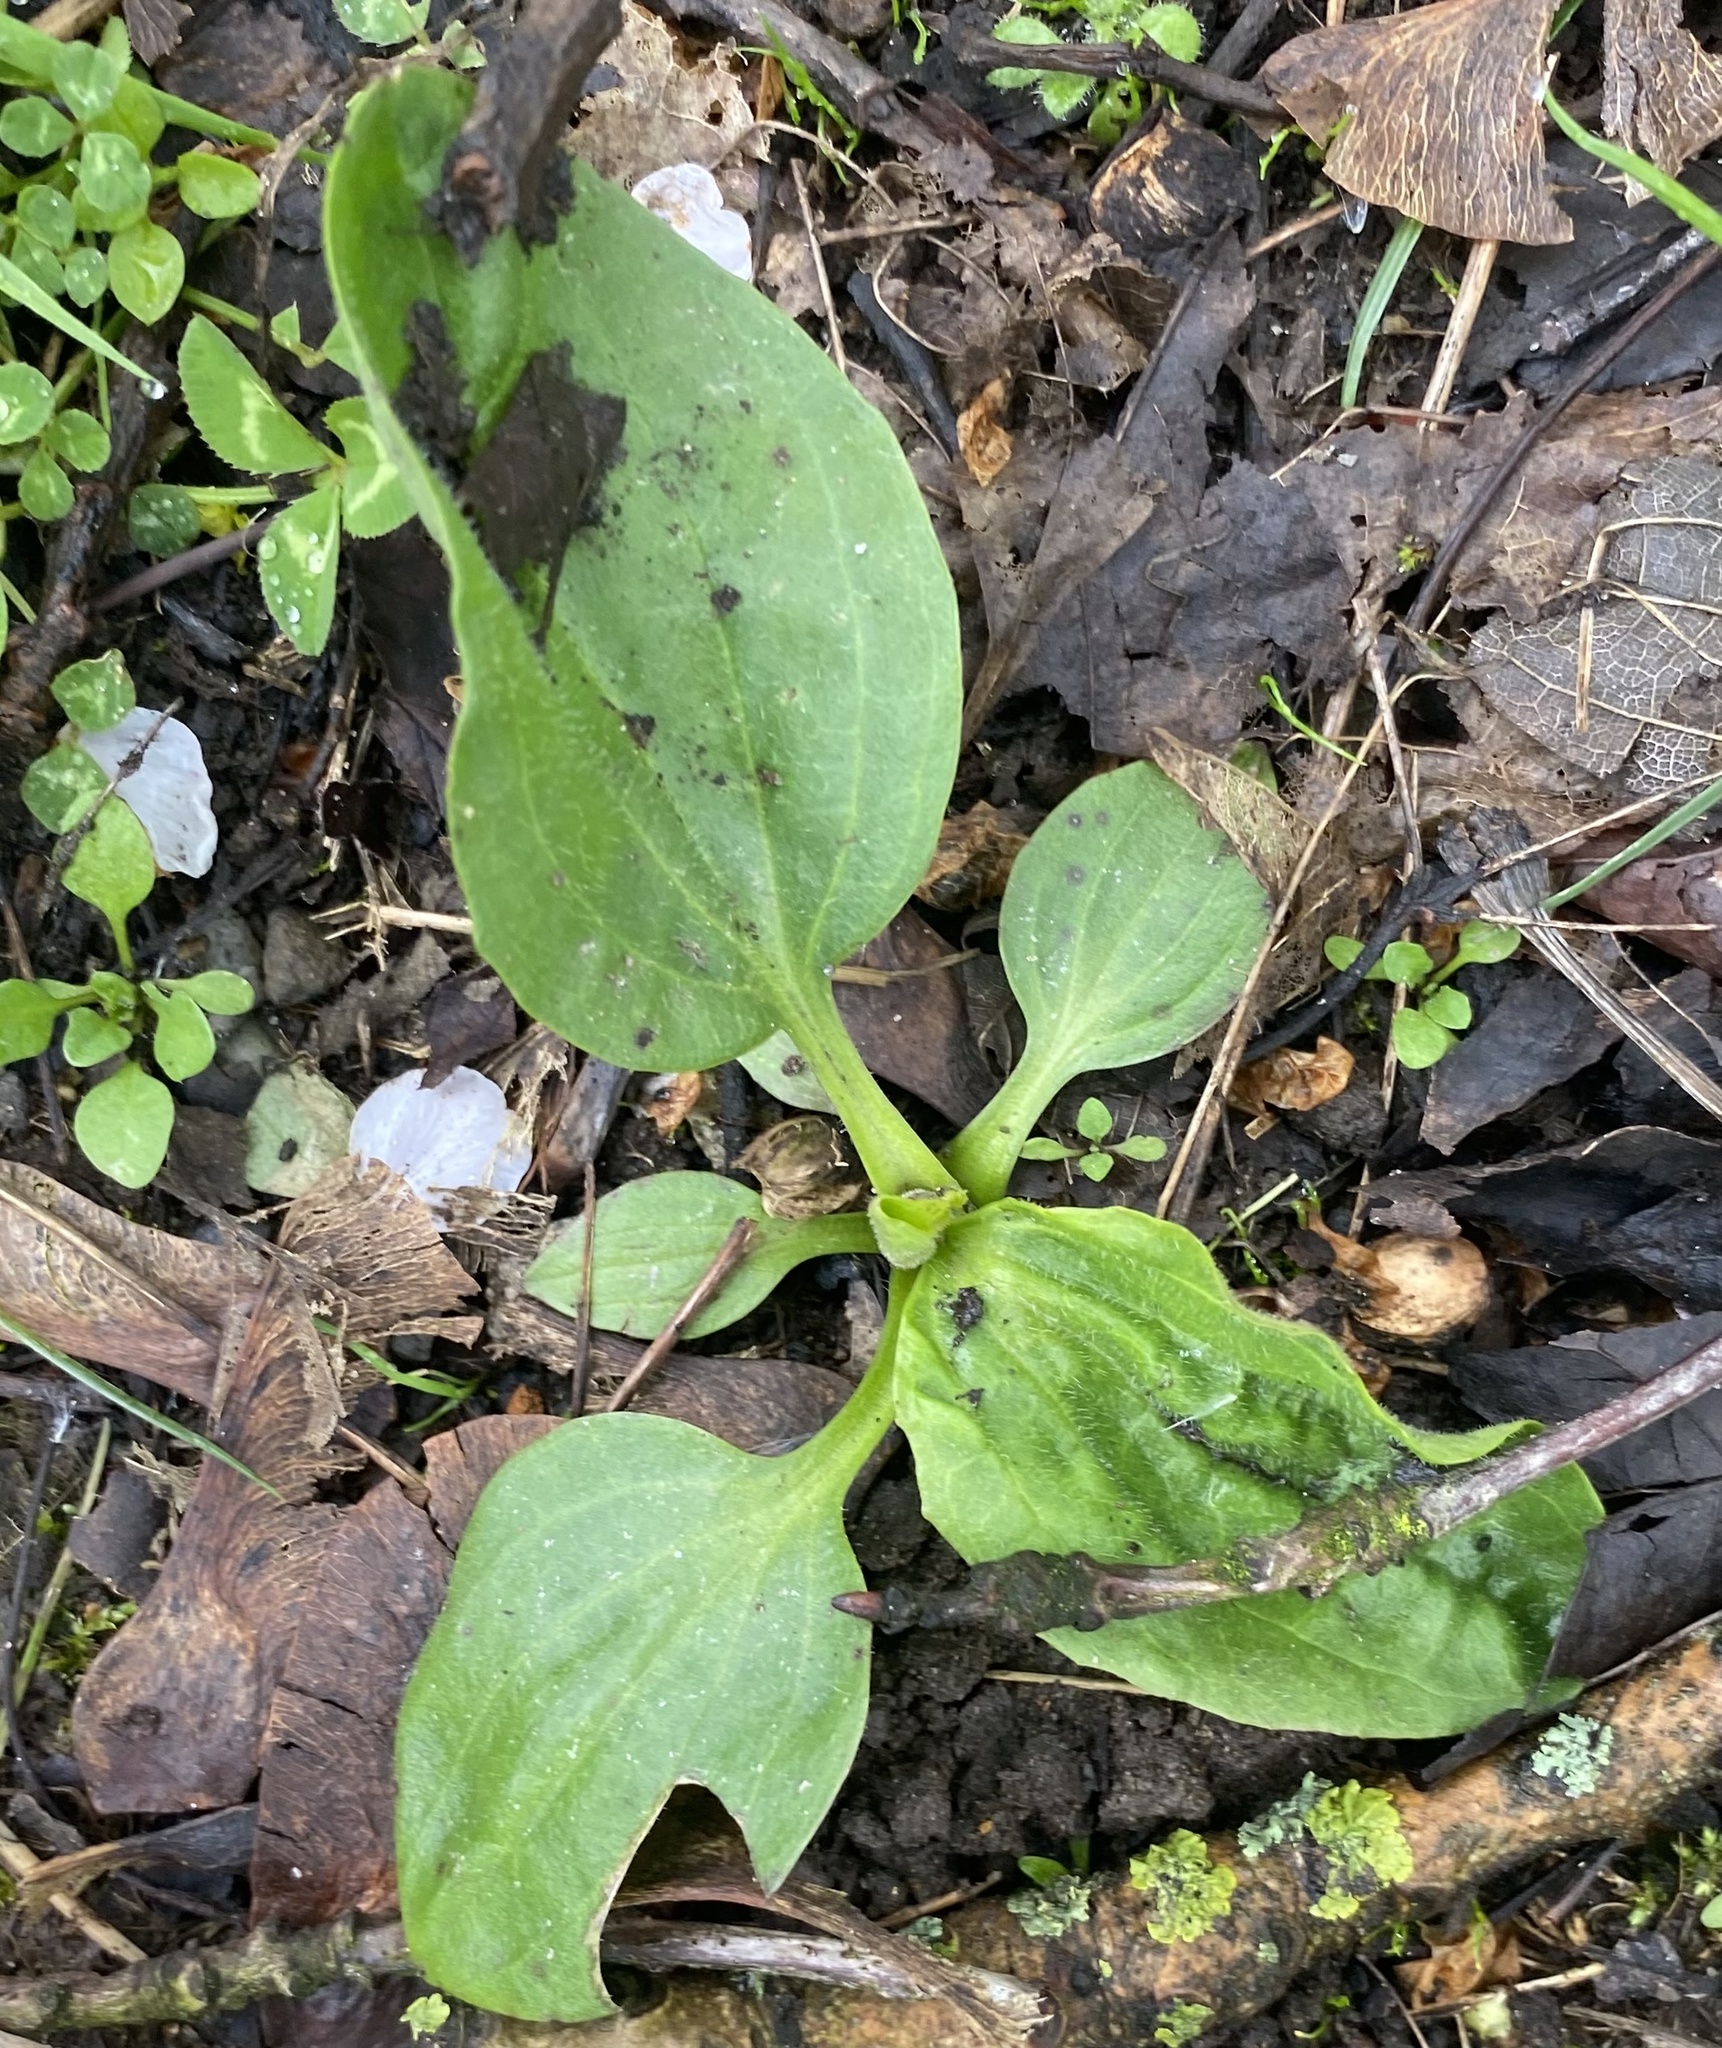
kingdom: Plantae
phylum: Tracheophyta
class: Magnoliopsida
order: Lamiales
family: Plantaginaceae
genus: Plantago
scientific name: Plantago major
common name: Common plantain
